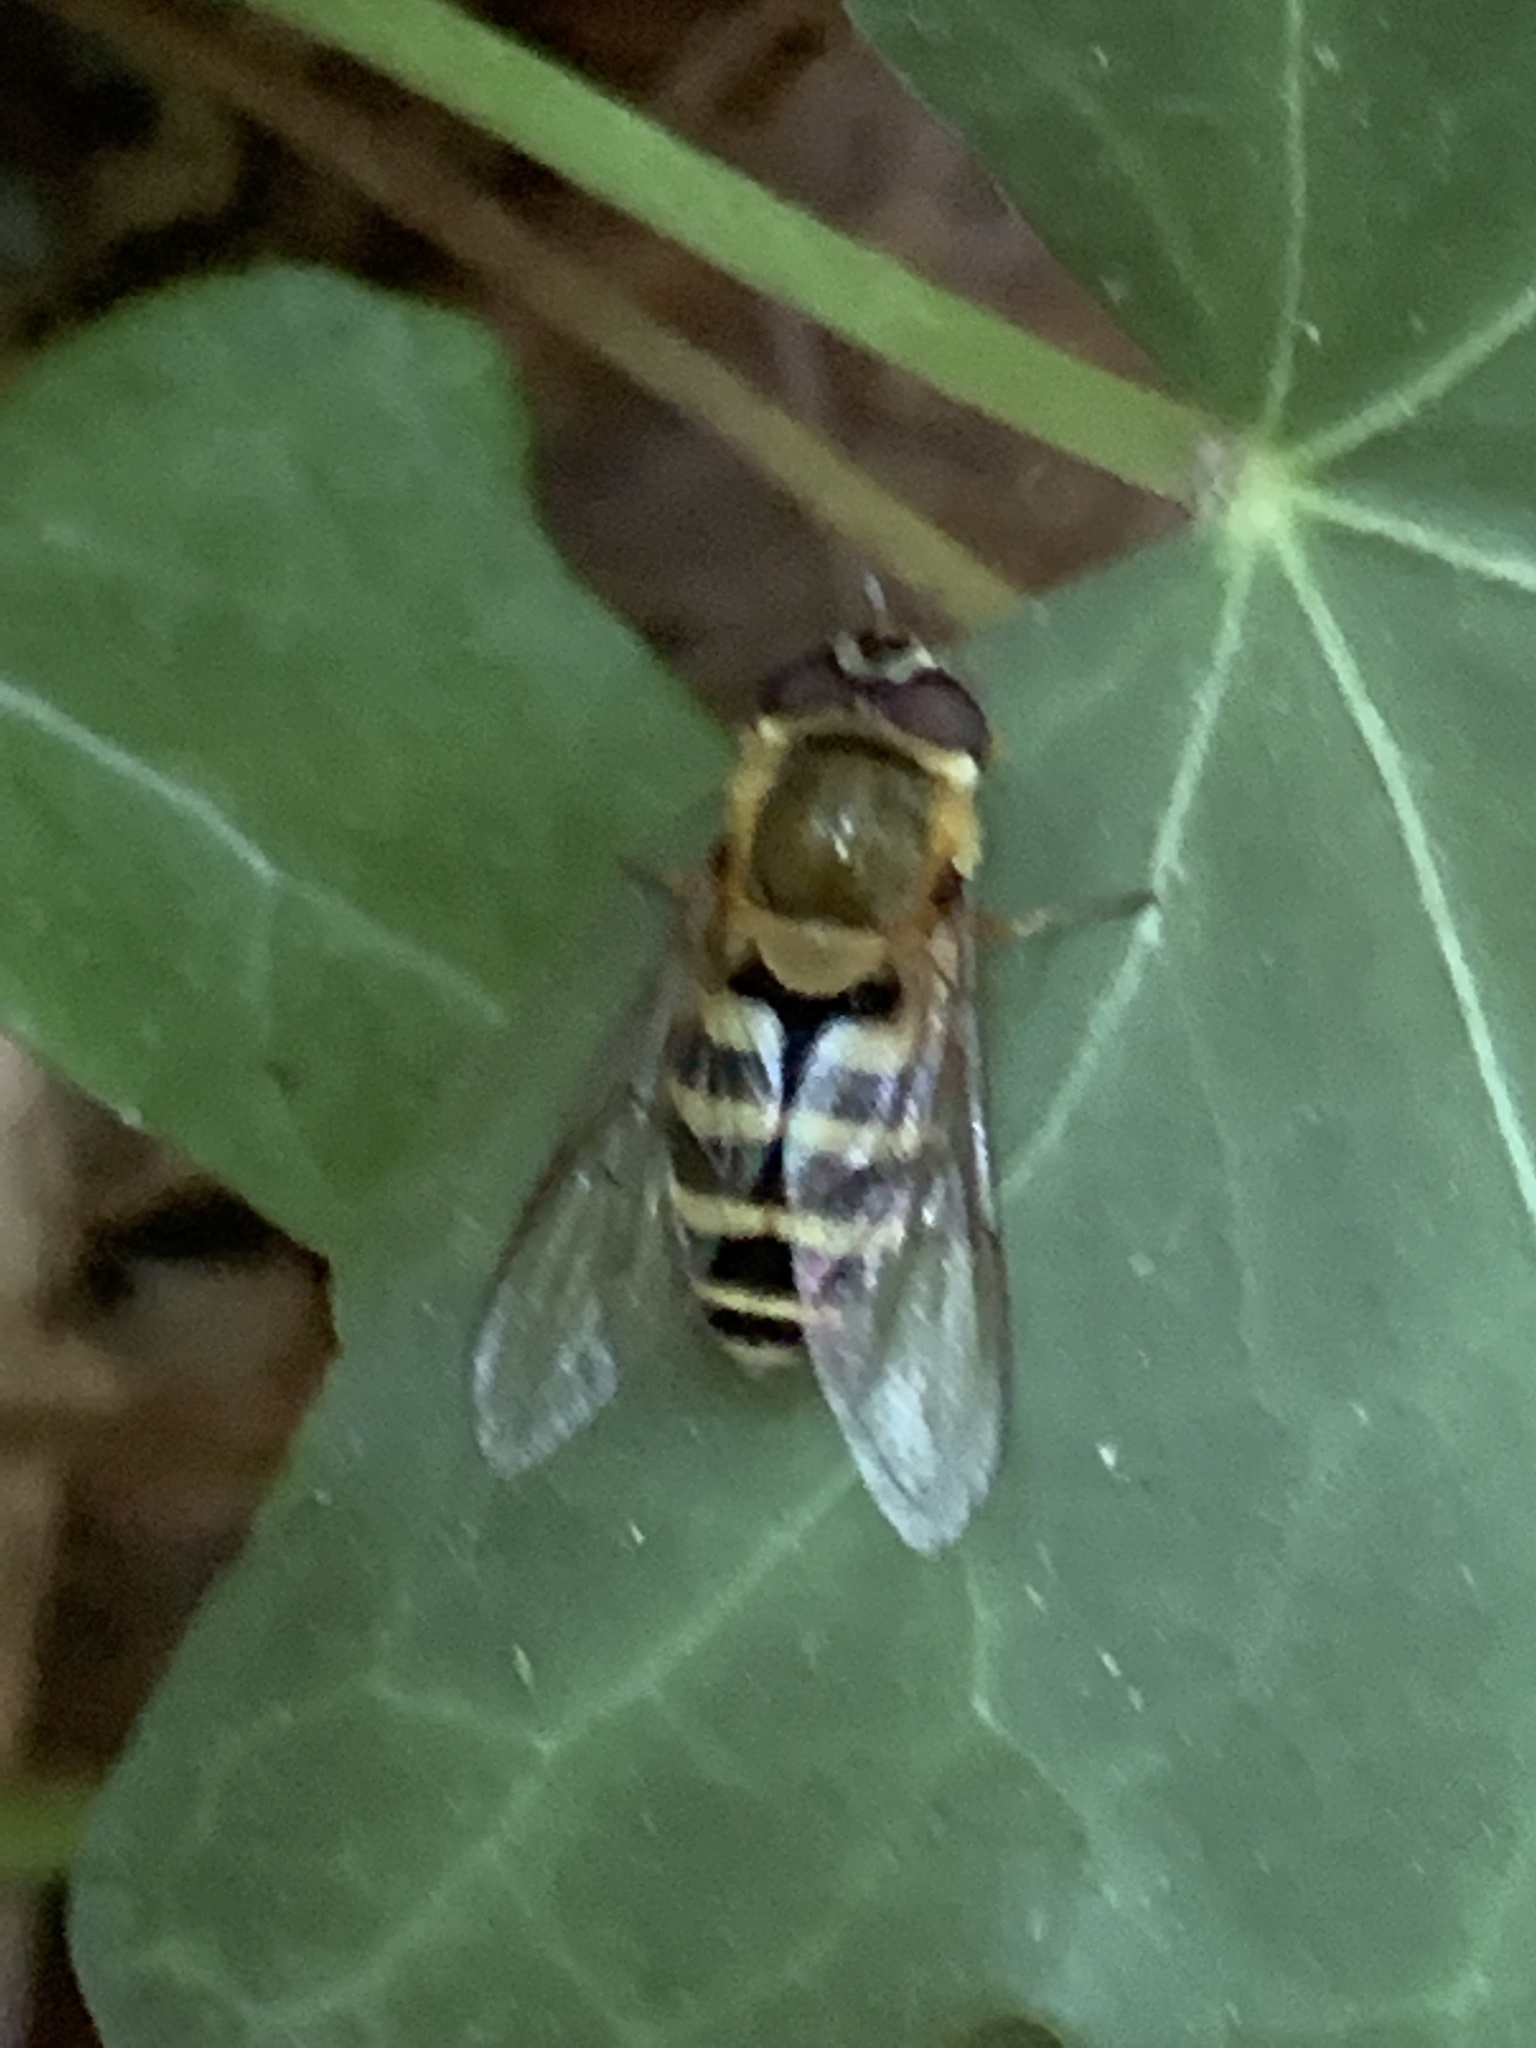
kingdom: Animalia
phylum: Arthropoda
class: Insecta
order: Diptera
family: Syrphidae
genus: Syrphus
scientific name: Syrphus
